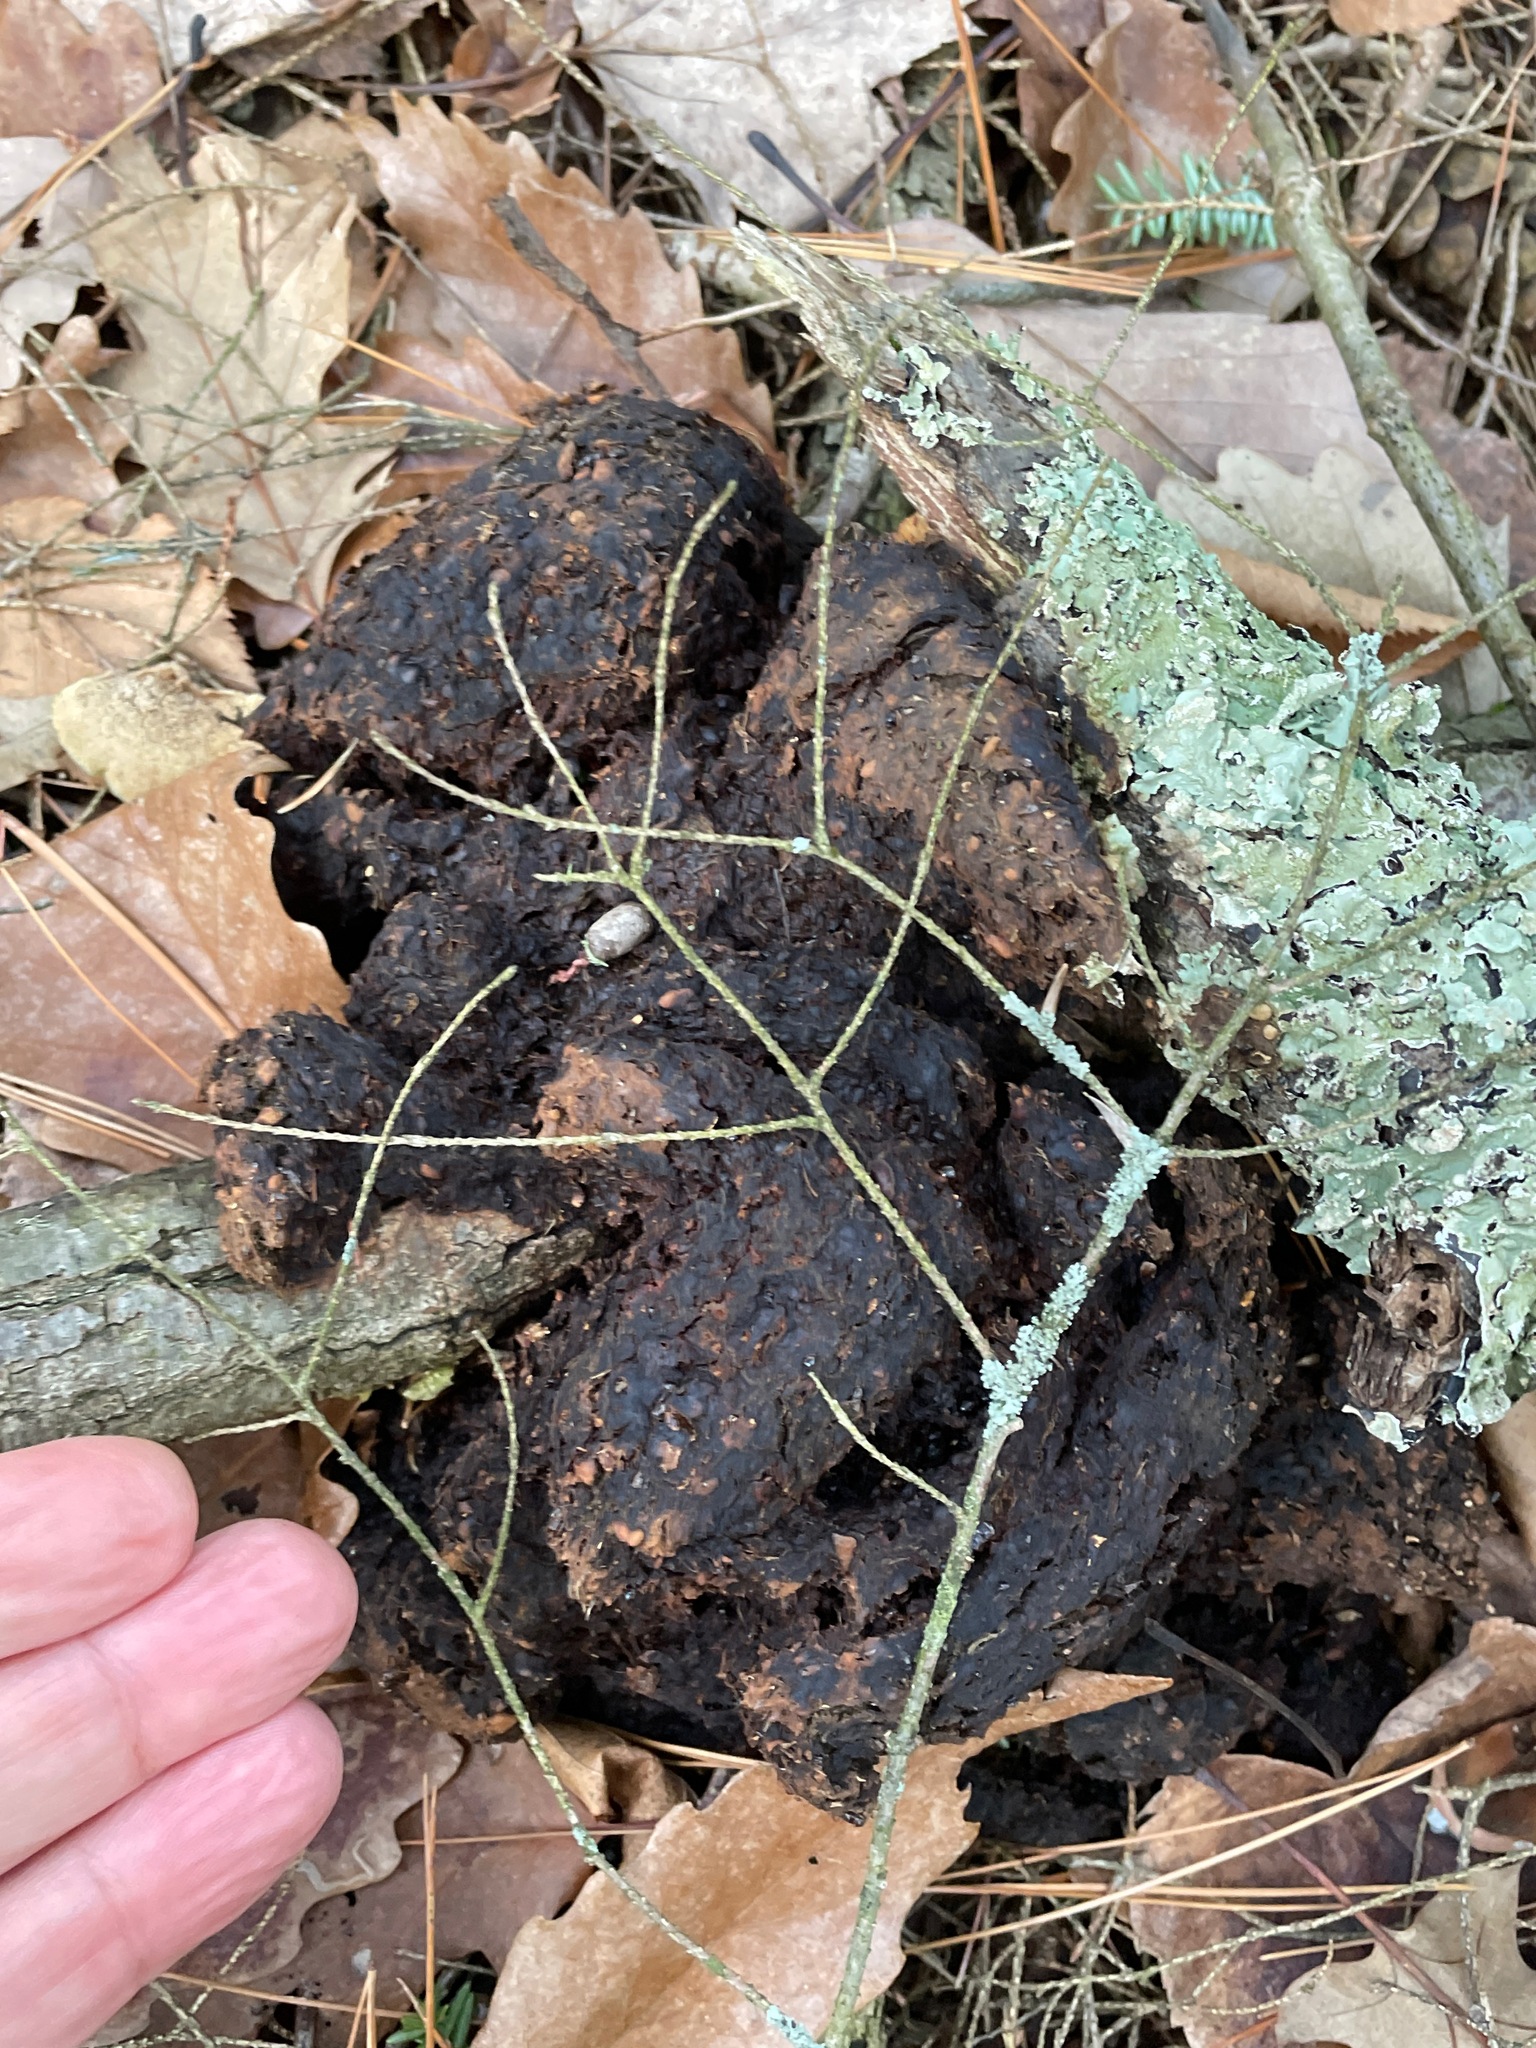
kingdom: Animalia
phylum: Chordata
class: Mammalia
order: Carnivora
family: Ursidae
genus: Ursus
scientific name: Ursus americanus
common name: American black bear
